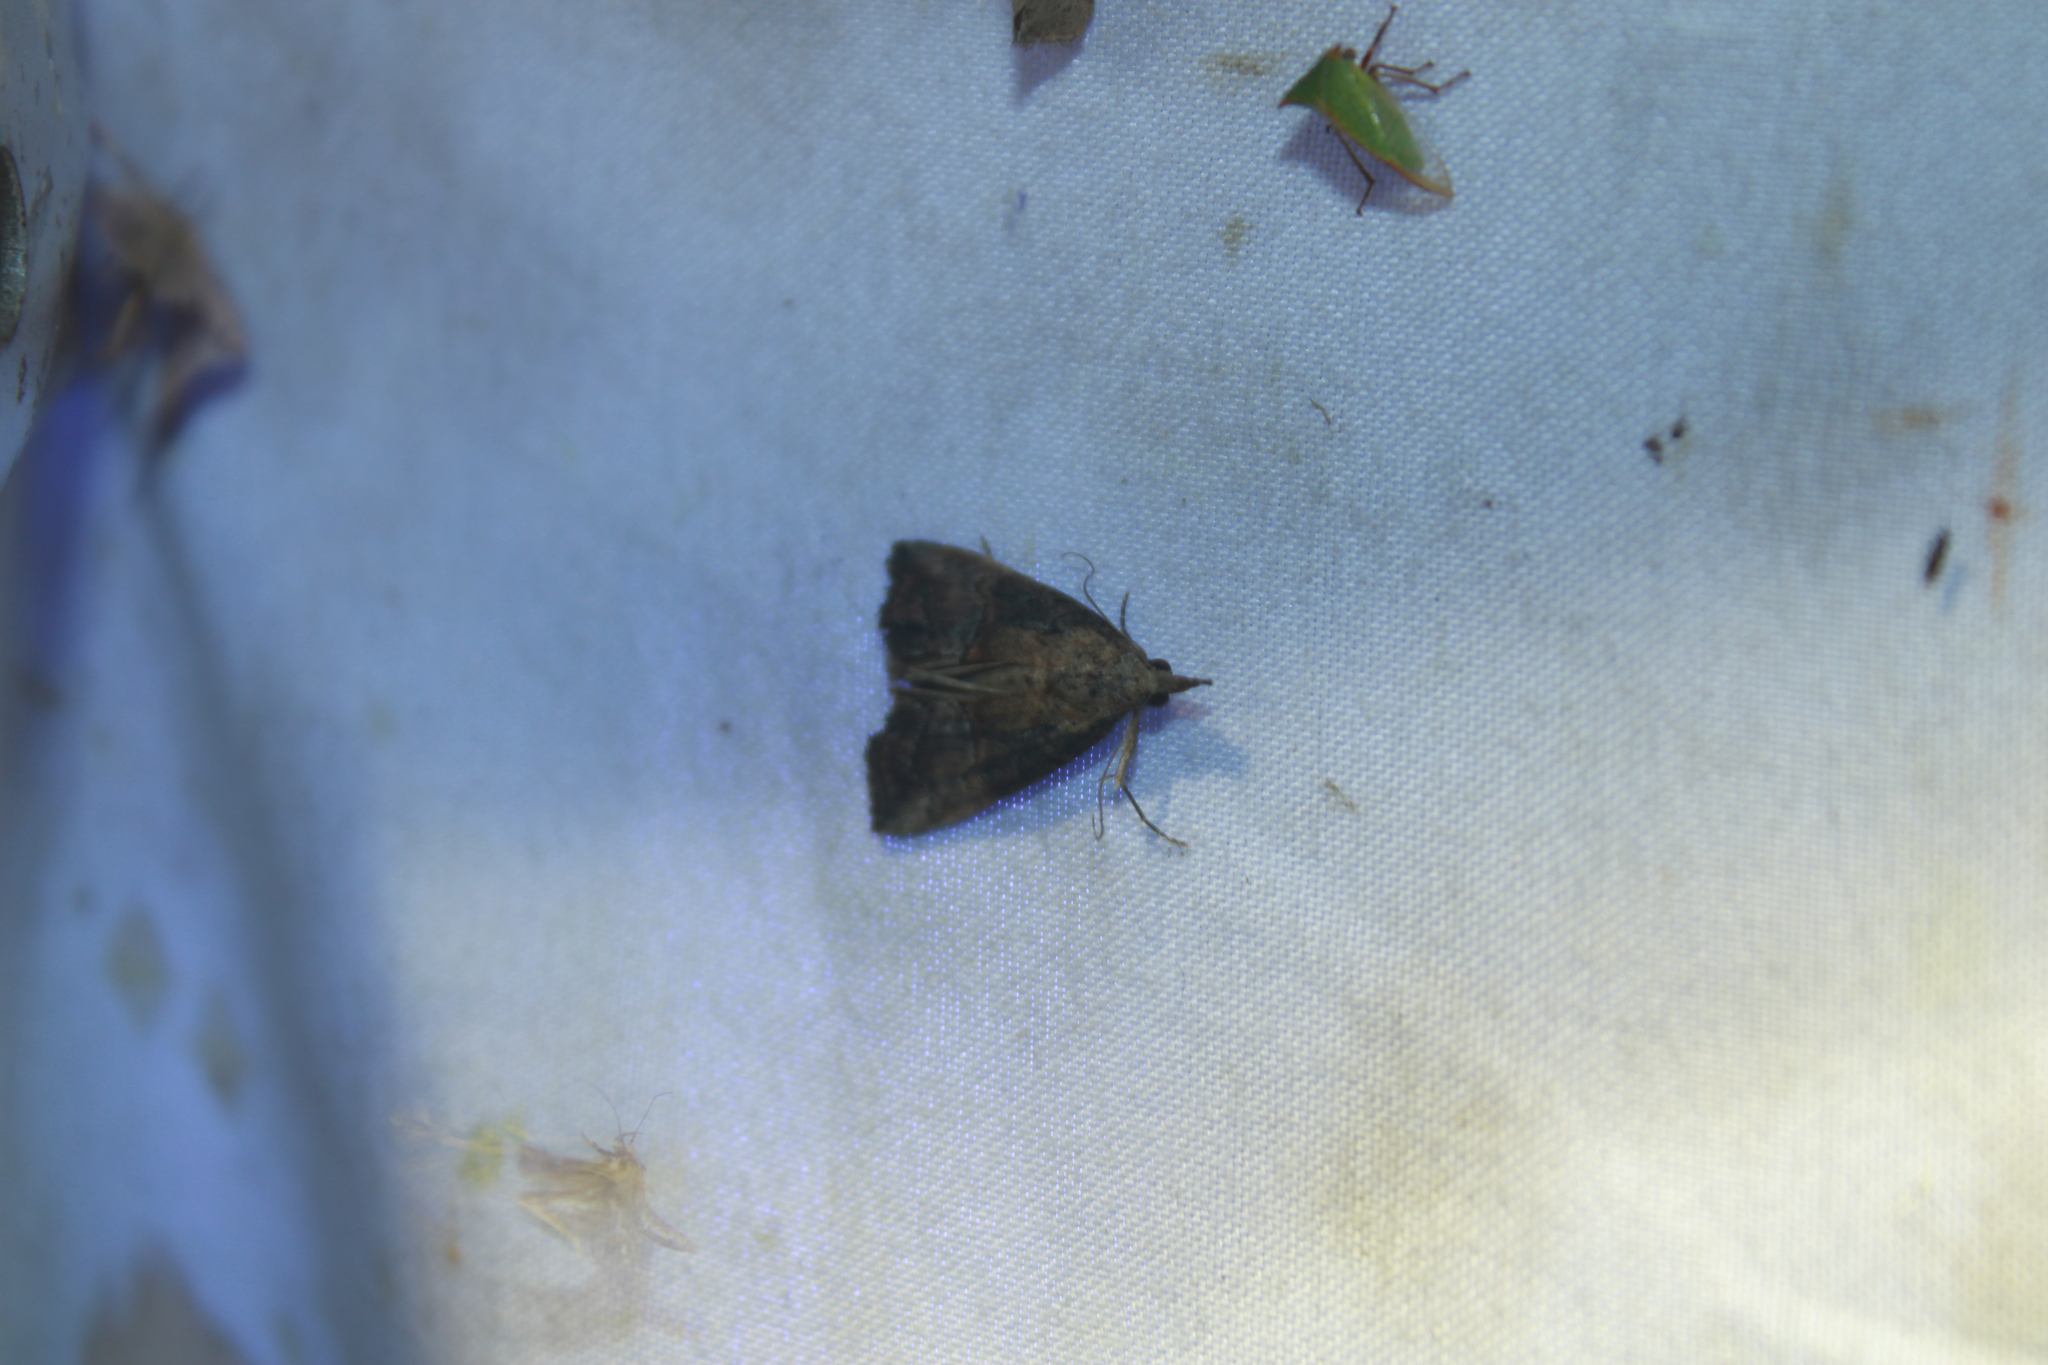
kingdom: Animalia
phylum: Arthropoda
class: Insecta
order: Lepidoptera
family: Erebidae
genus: Hypena
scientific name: Hypena scabra
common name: Green cloverworm
